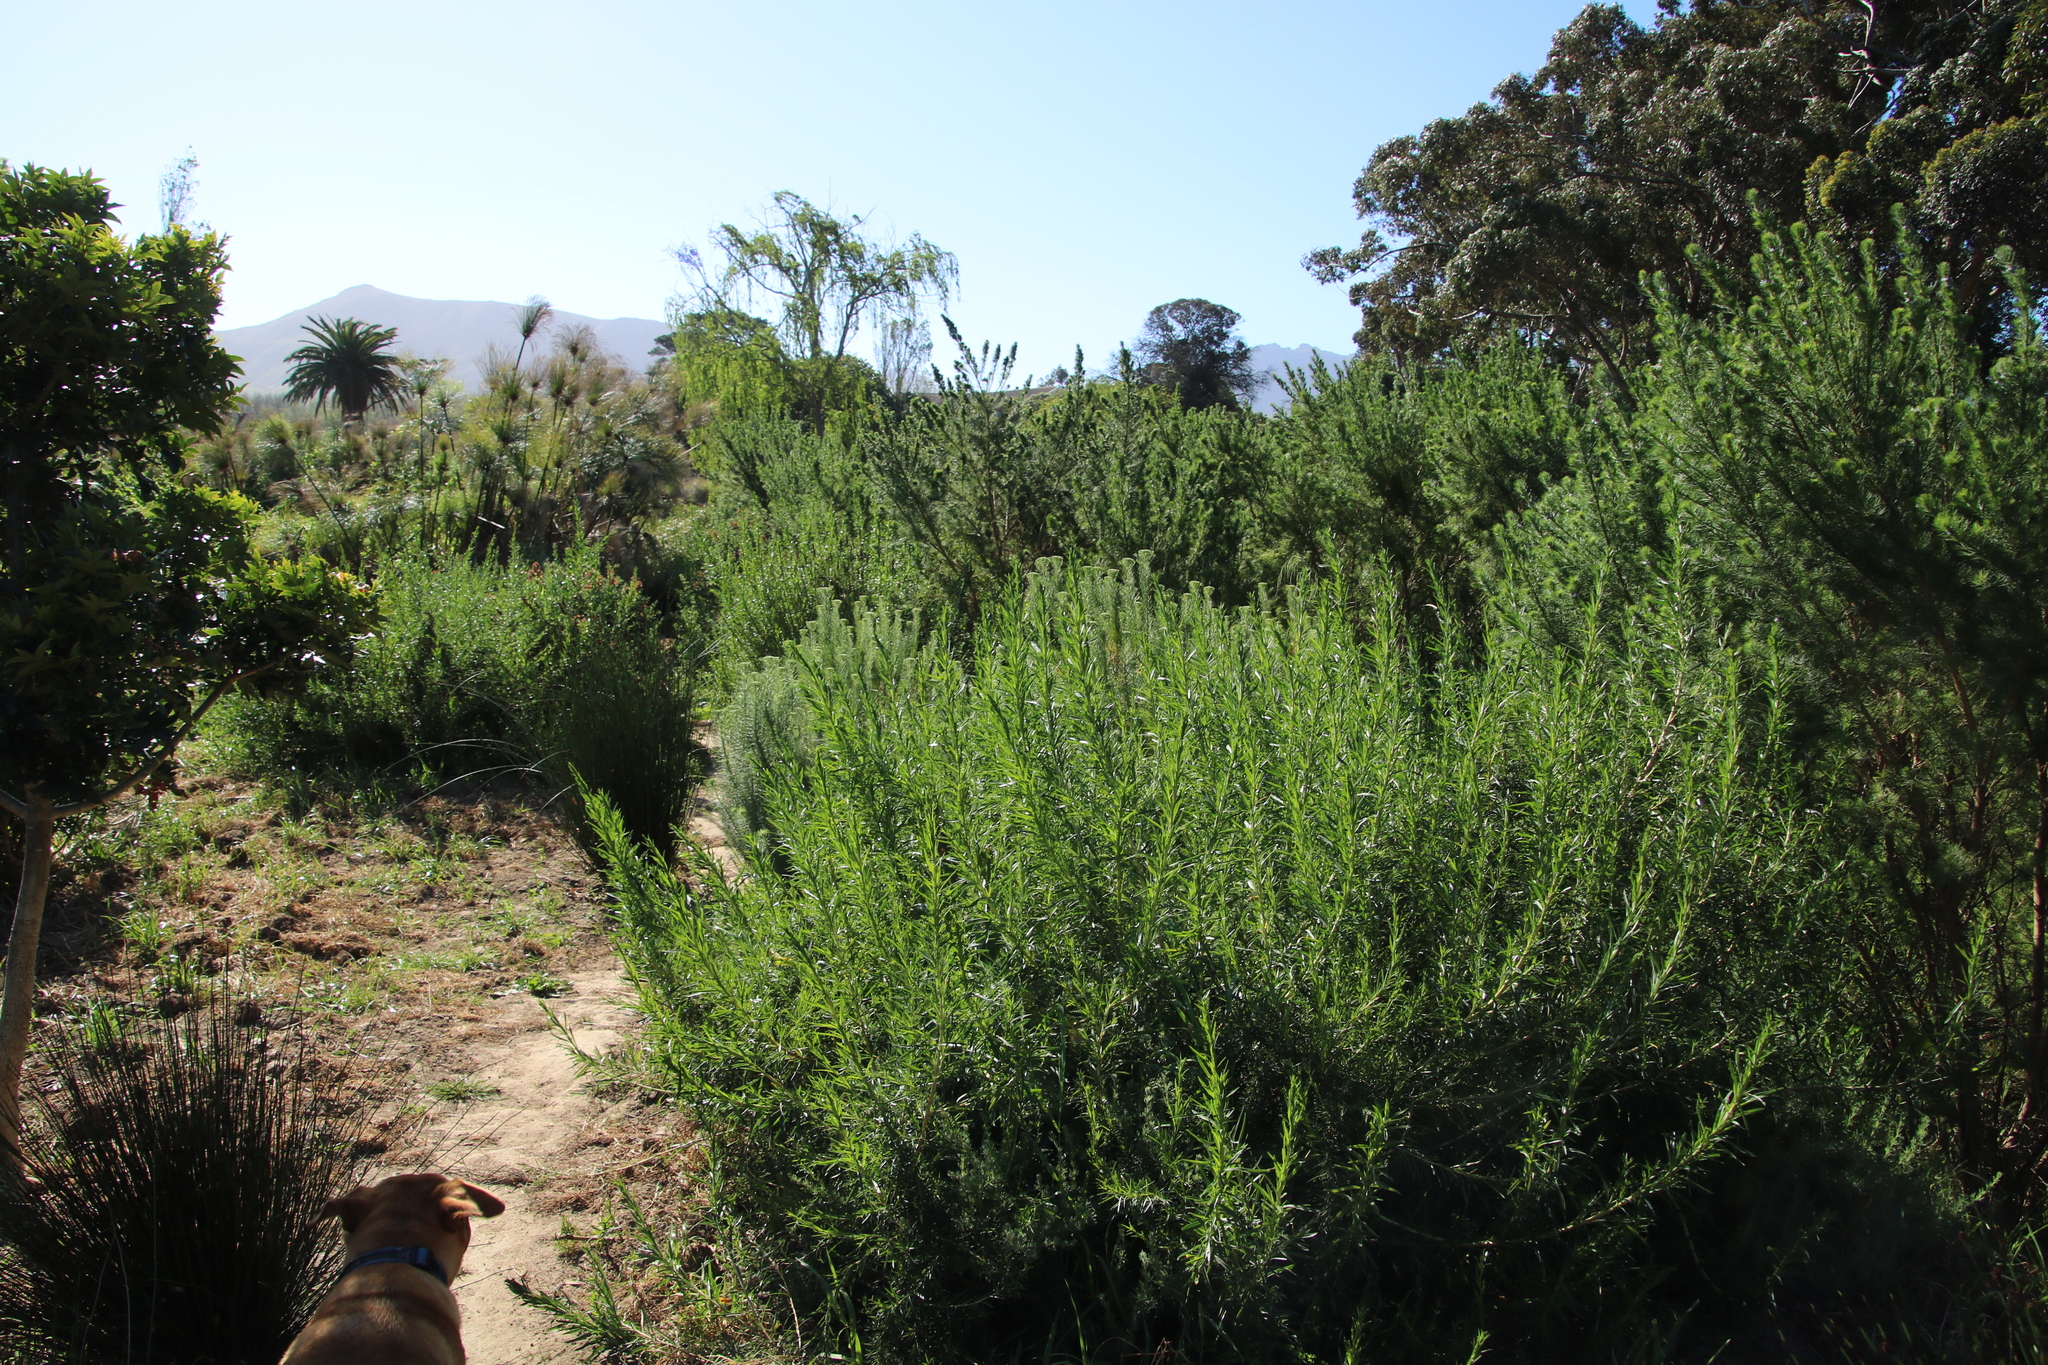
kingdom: Plantae
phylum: Tracheophyta
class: Magnoliopsida
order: Rosales
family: Rosaceae
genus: Cliffortia
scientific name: Cliffortia longifolia
